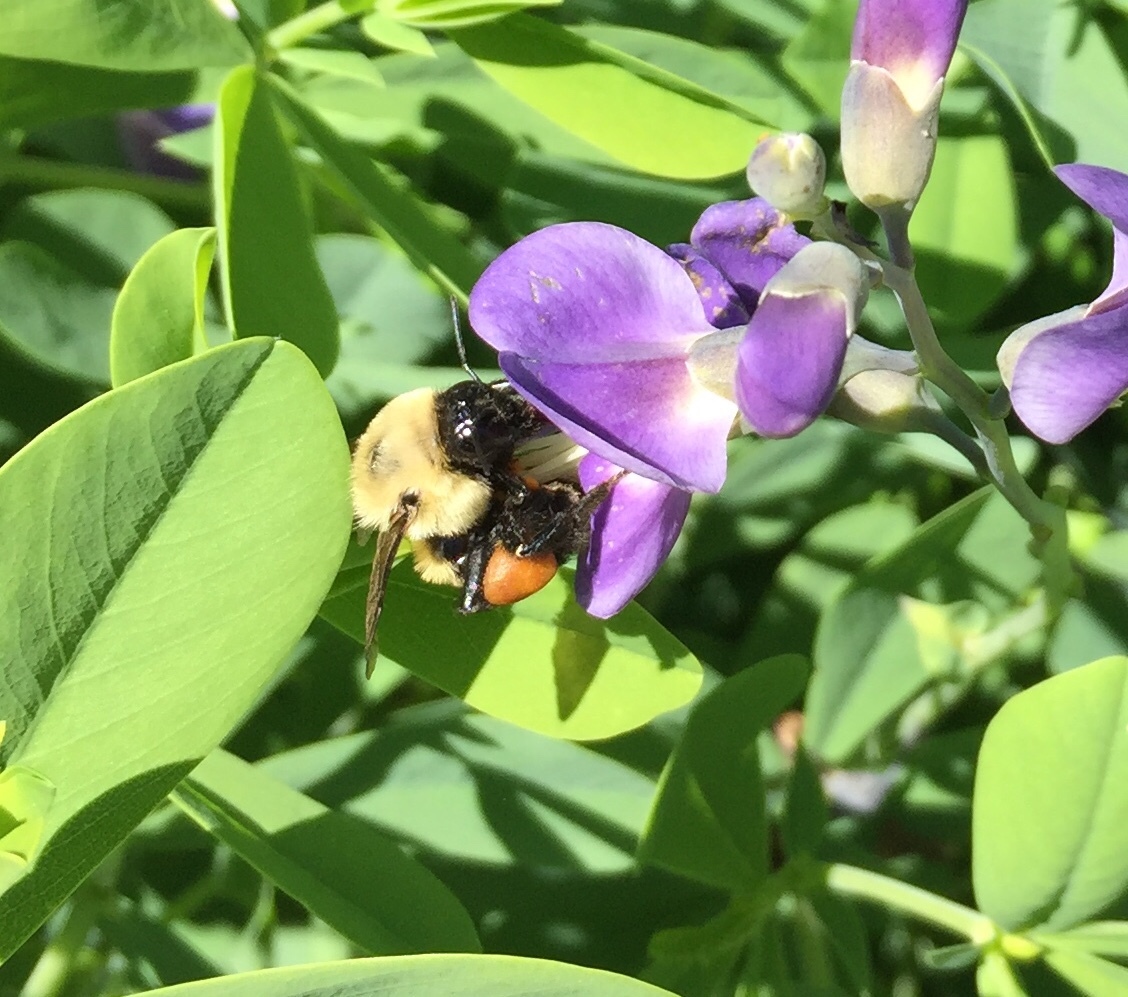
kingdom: Animalia
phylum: Arthropoda
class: Insecta
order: Hymenoptera
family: Apidae
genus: Bombus
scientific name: Bombus griseocollis
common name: Brown-belted bumble bee
